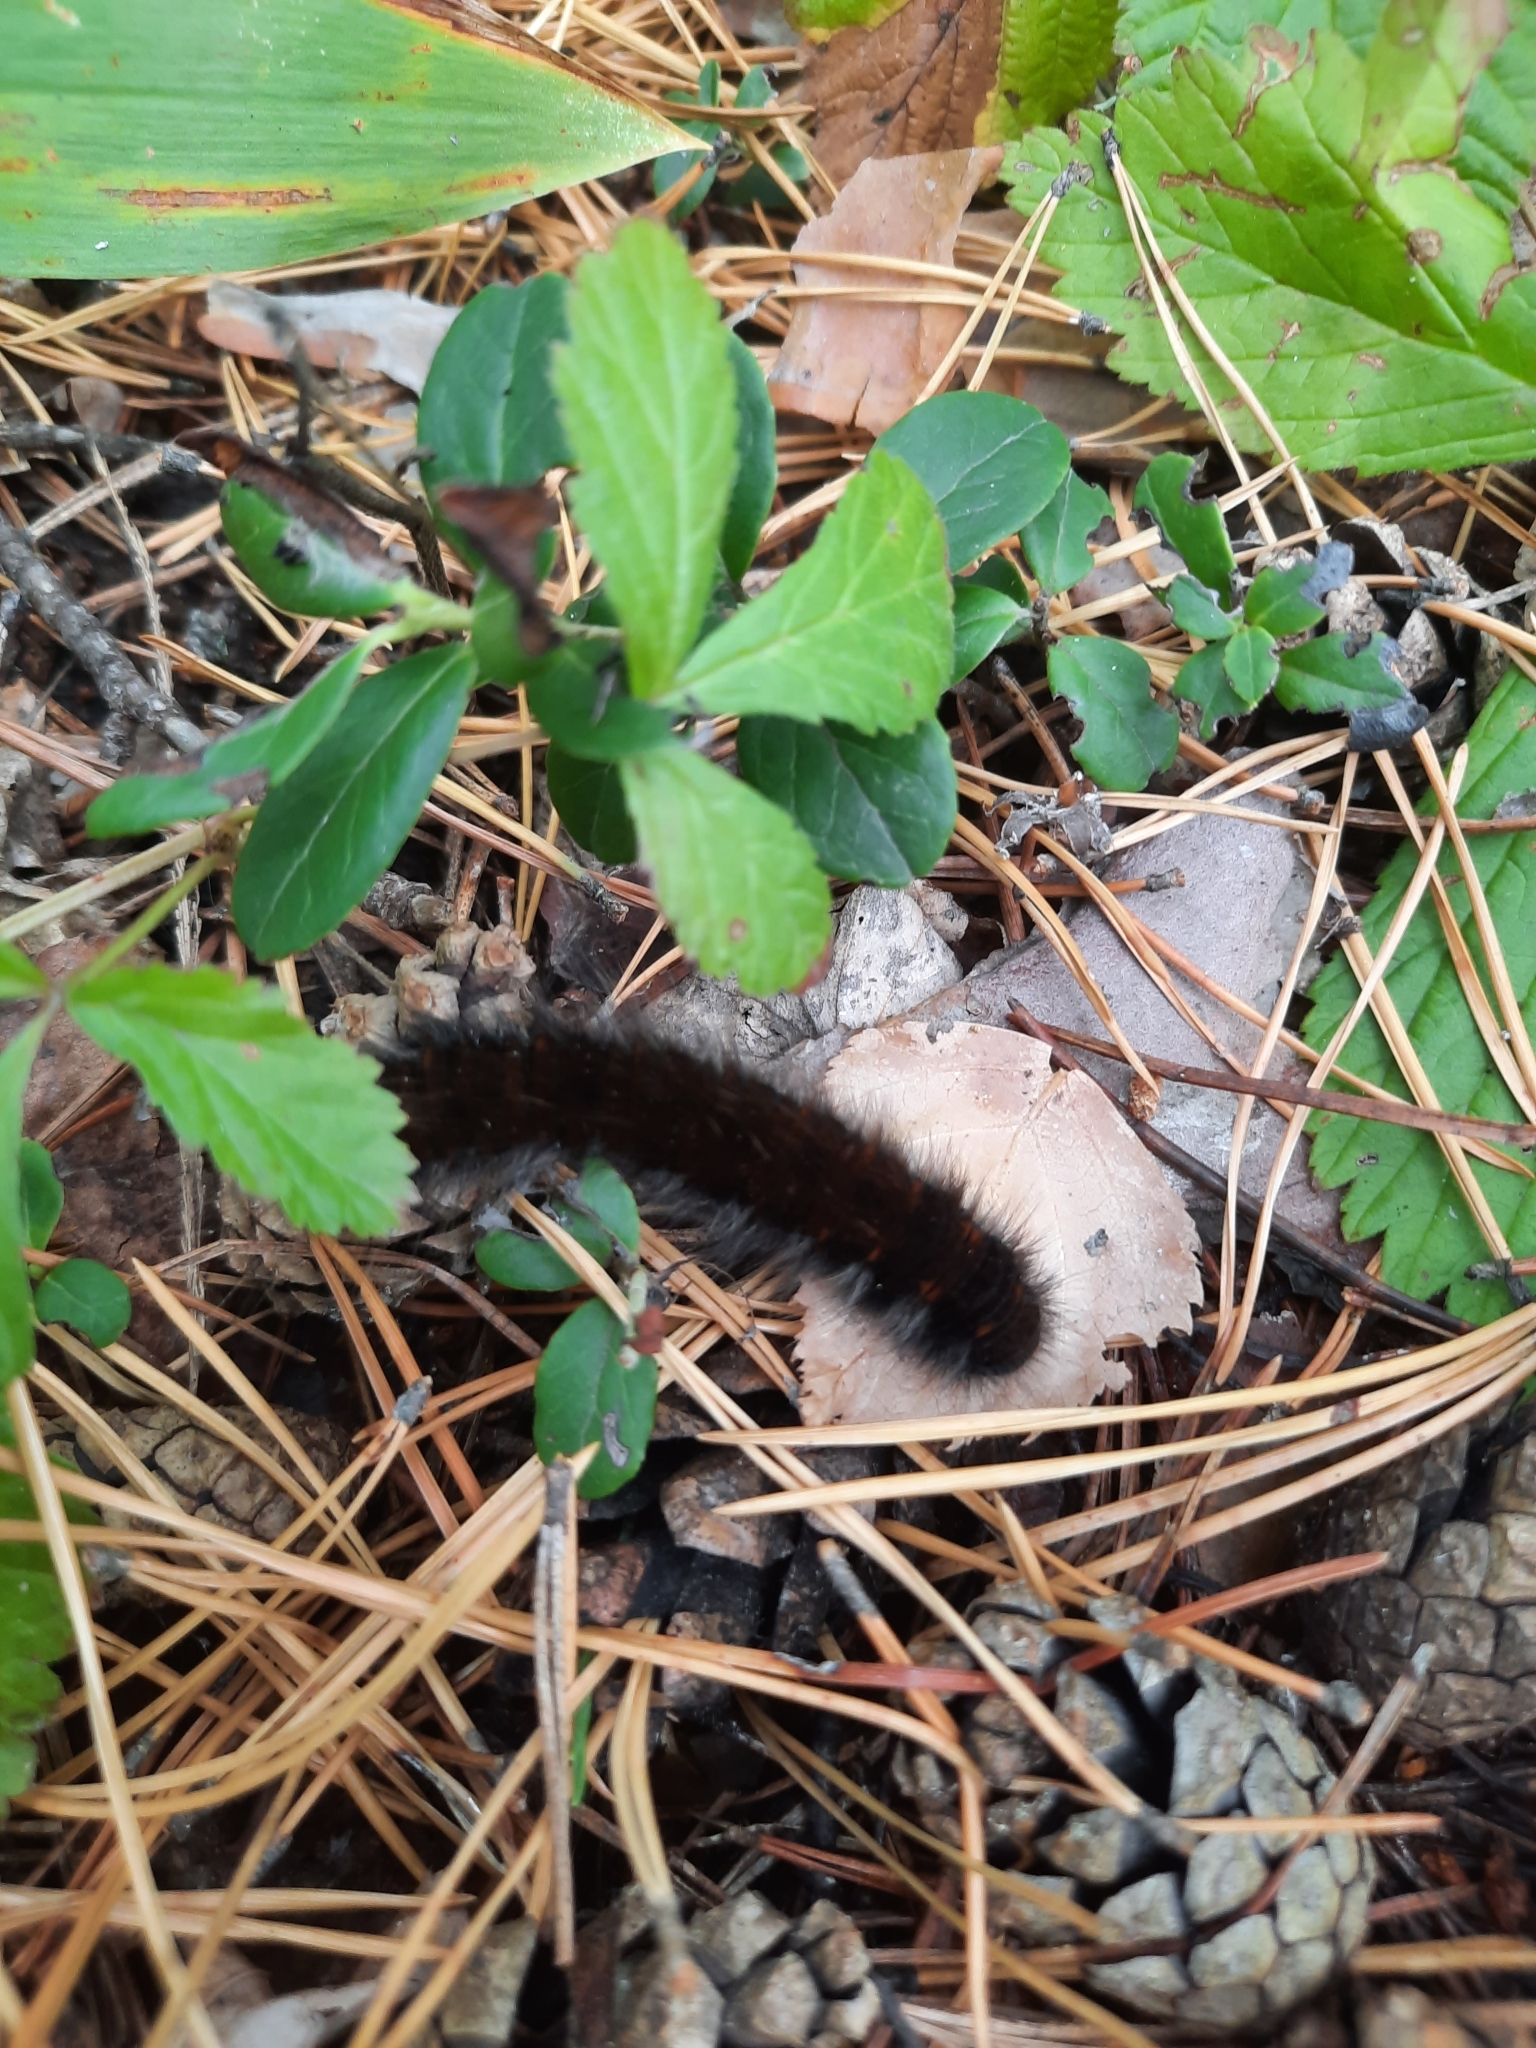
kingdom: Animalia
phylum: Arthropoda
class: Insecta
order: Lepidoptera
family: Lasiocampidae
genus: Macrothylacia
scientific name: Macrothylacia rubi
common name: Fox moth
